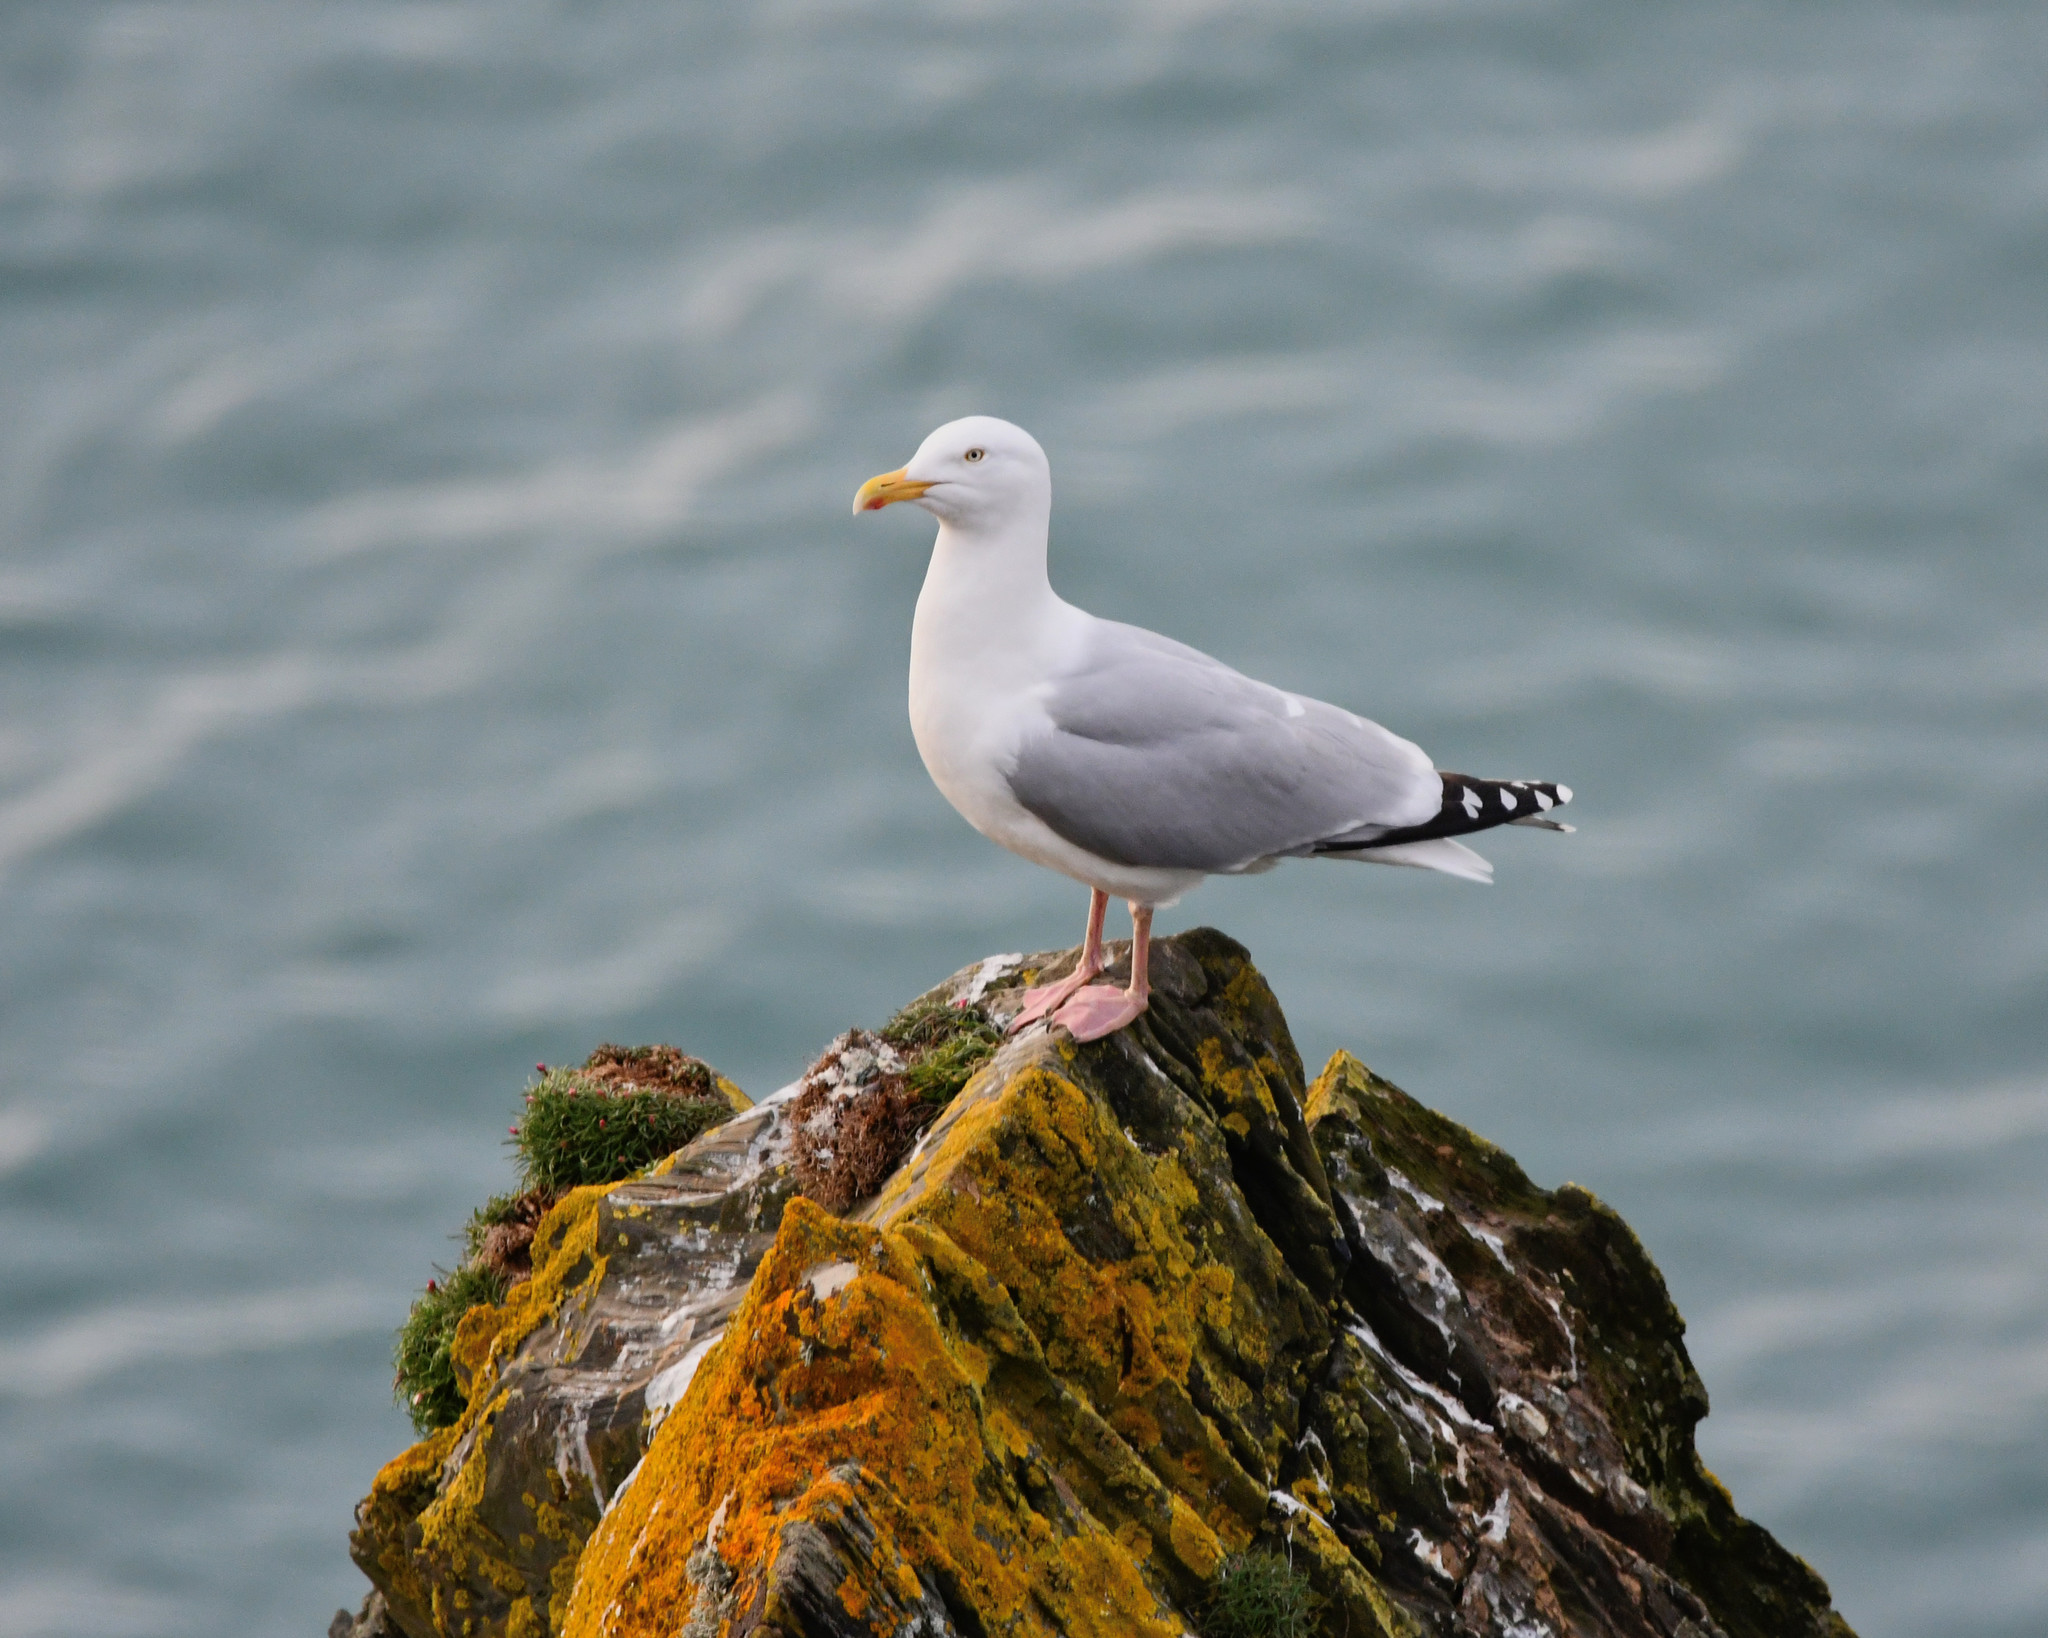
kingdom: Animalia
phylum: Chordata
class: Aves
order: Charadriiformes
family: Laridae
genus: Larus
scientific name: Larus argentatus
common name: Herring gull
